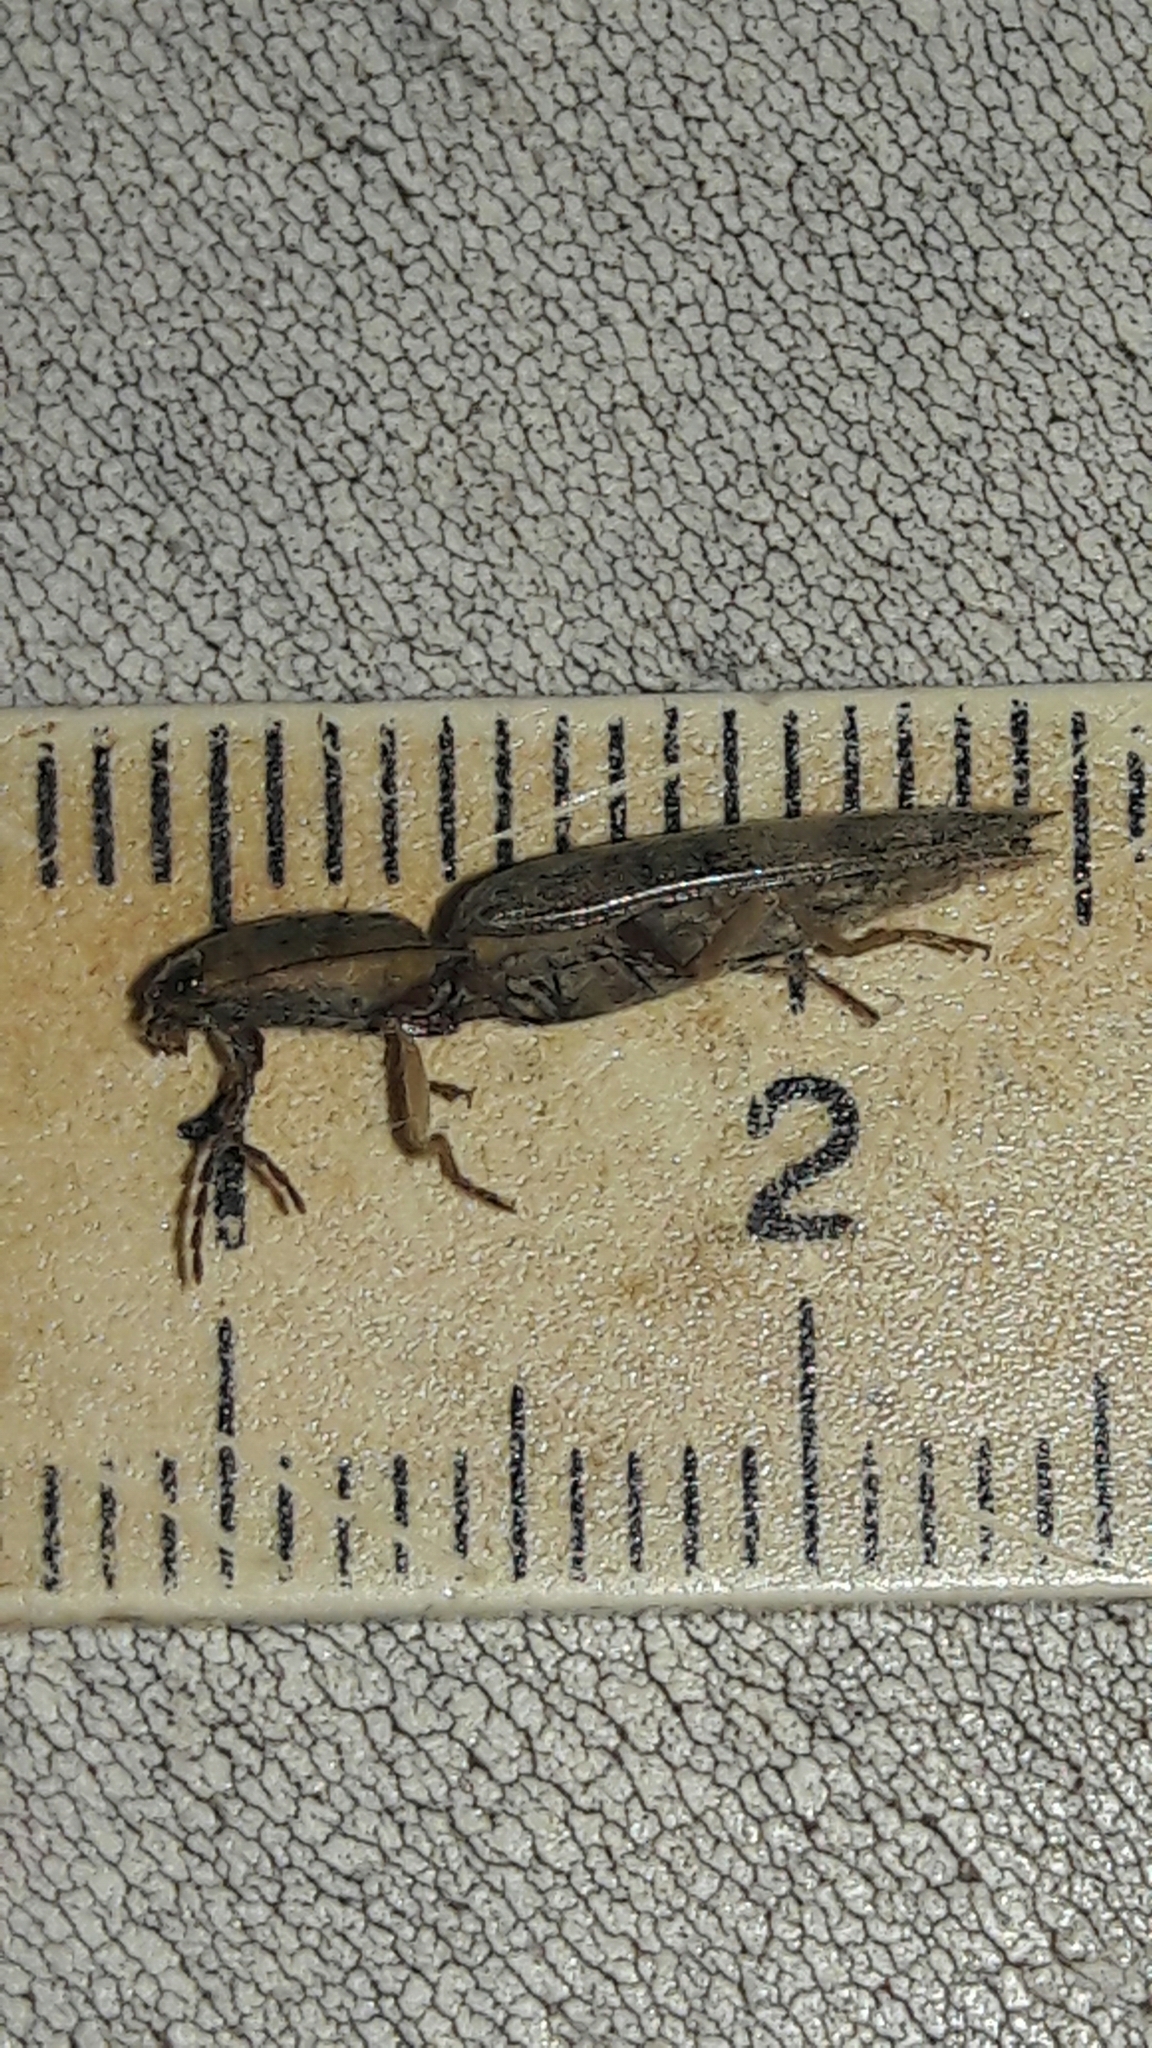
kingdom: Animalia
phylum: Arthropoda
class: Insecta
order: Coleoptera
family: Elateridae
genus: Monocrepidius
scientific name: Monocrepidius
